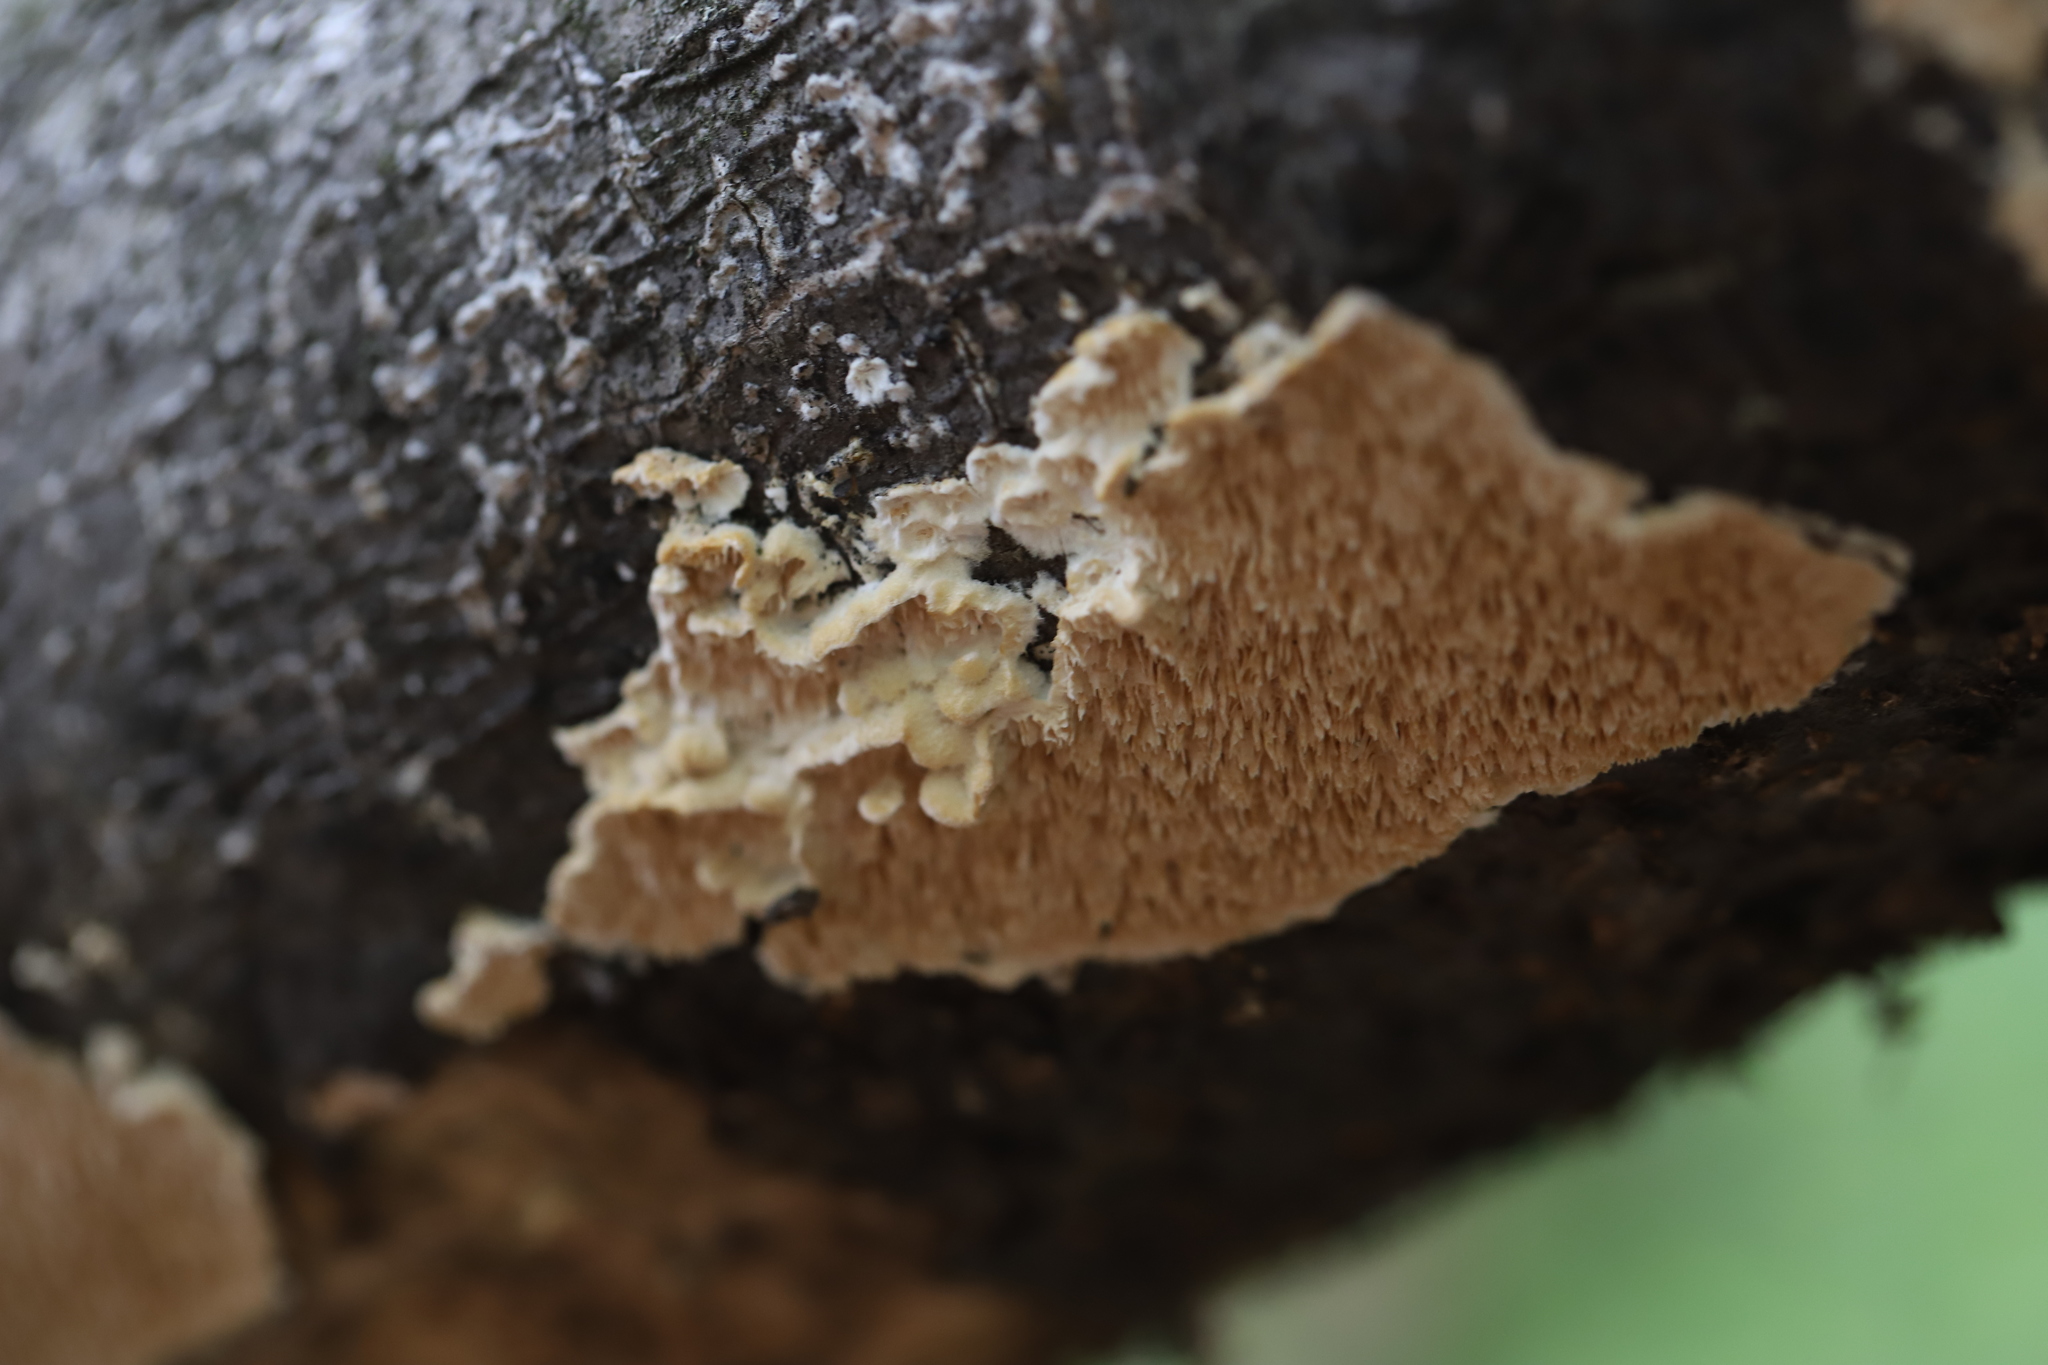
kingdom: Fungi
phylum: Basidiomycota
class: Agaricomycetes
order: Polyporales
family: Irpicaceae
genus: Irpex
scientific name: Irpex lacteus
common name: Milk-white toothed polypore
